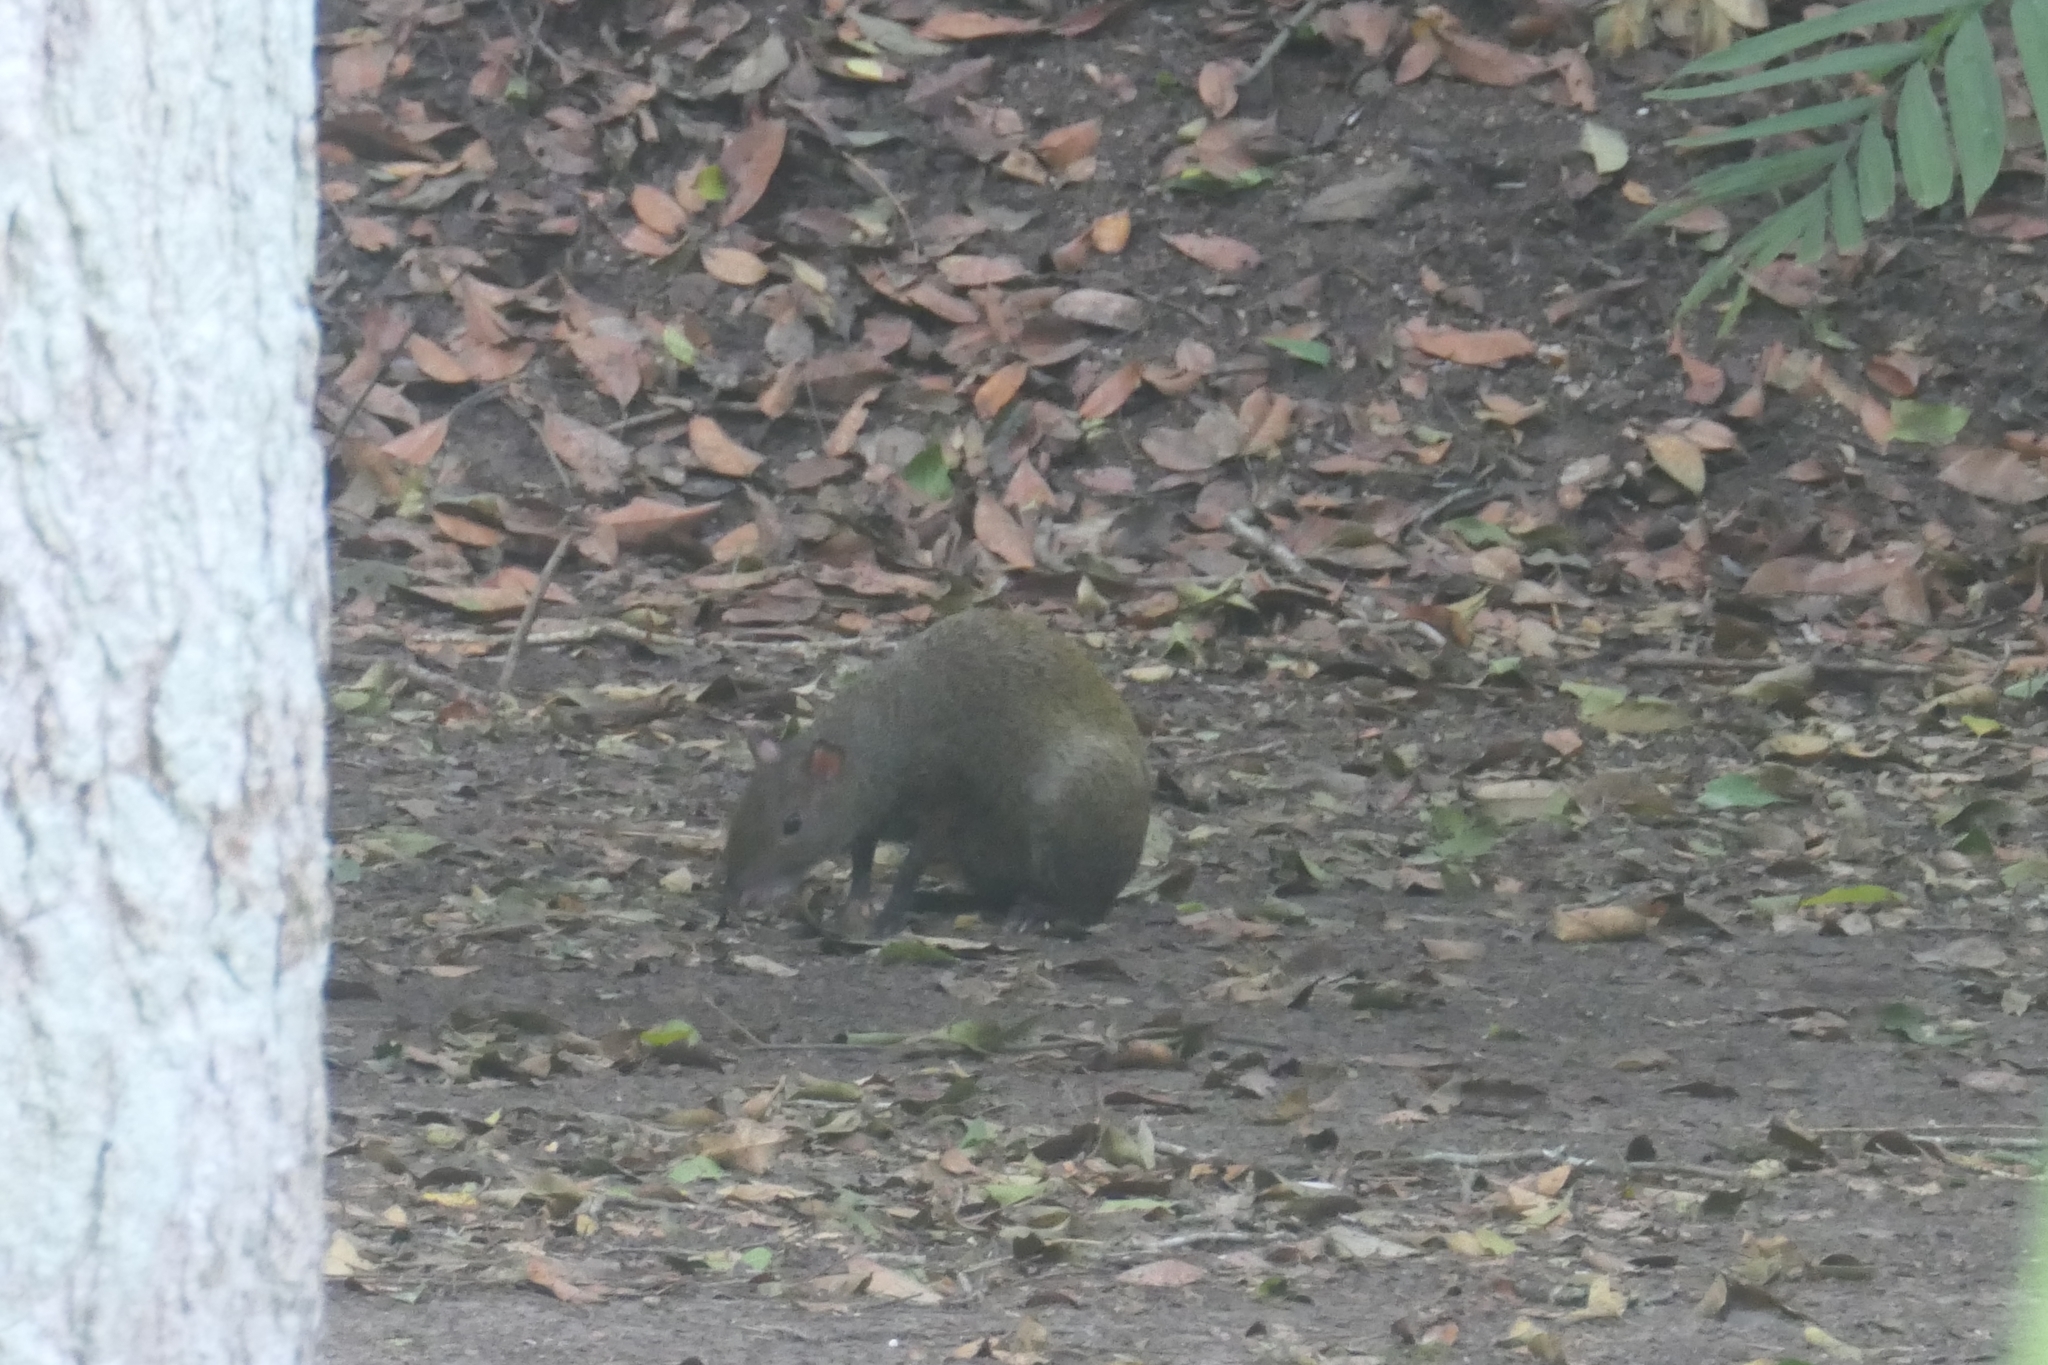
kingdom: Animalia
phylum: Chordata
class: Mammalia
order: Rodentia
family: Dasyproctidae
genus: Dasyprocta
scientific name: Dasyprocta punctata
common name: Central american agouti
